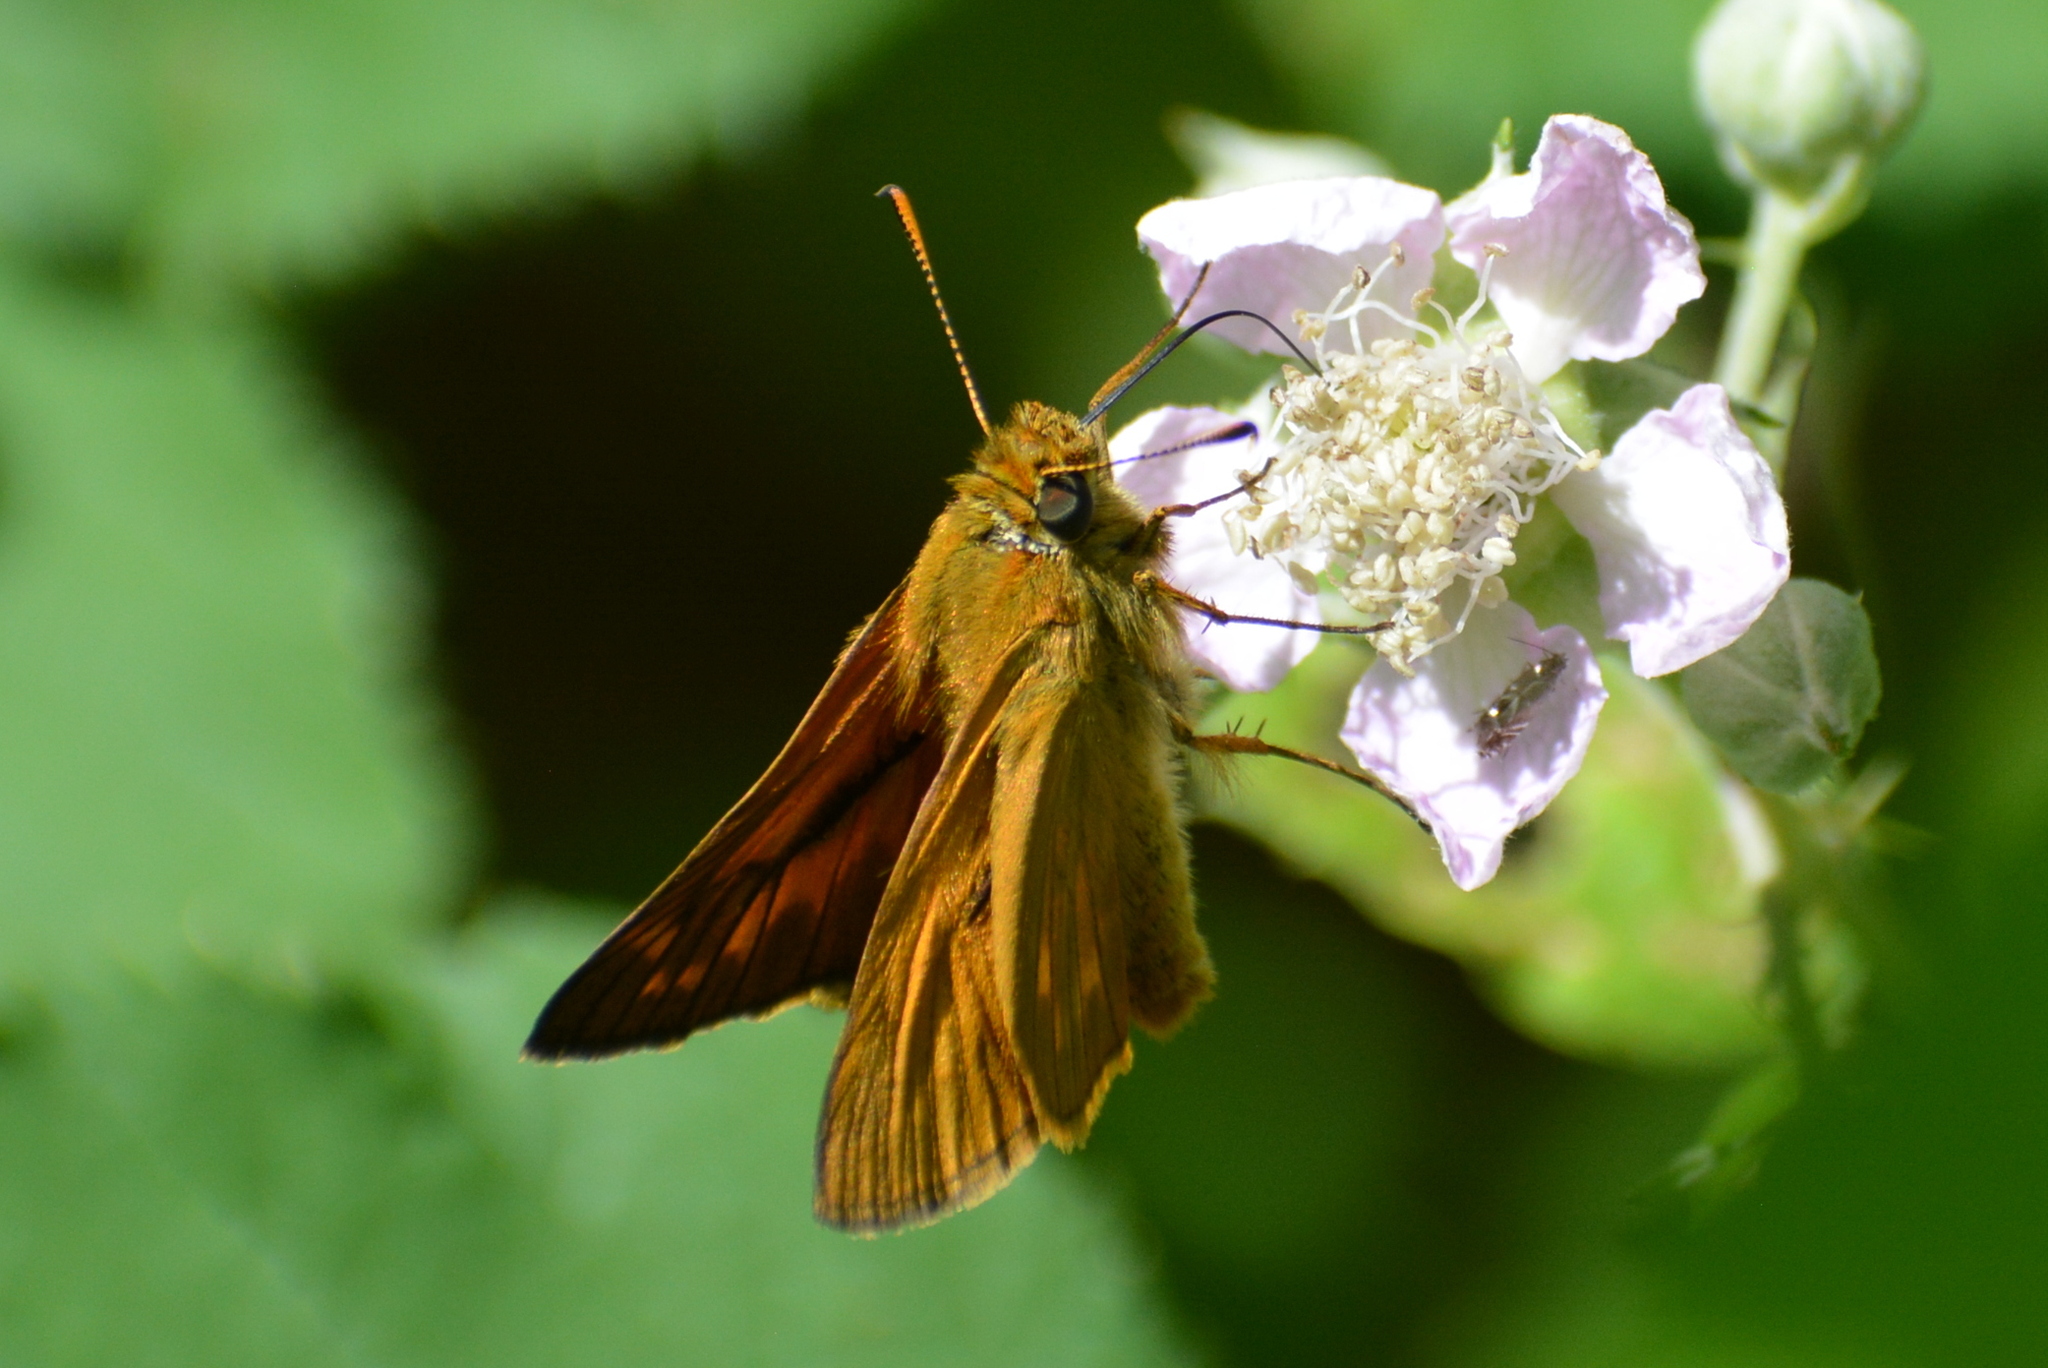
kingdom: Animalia
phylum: Arthropoda
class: Insecta
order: Lepidoptera
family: Hesperiidae
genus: Ochlodes
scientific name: Ochlodes venata
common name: Large skipper
